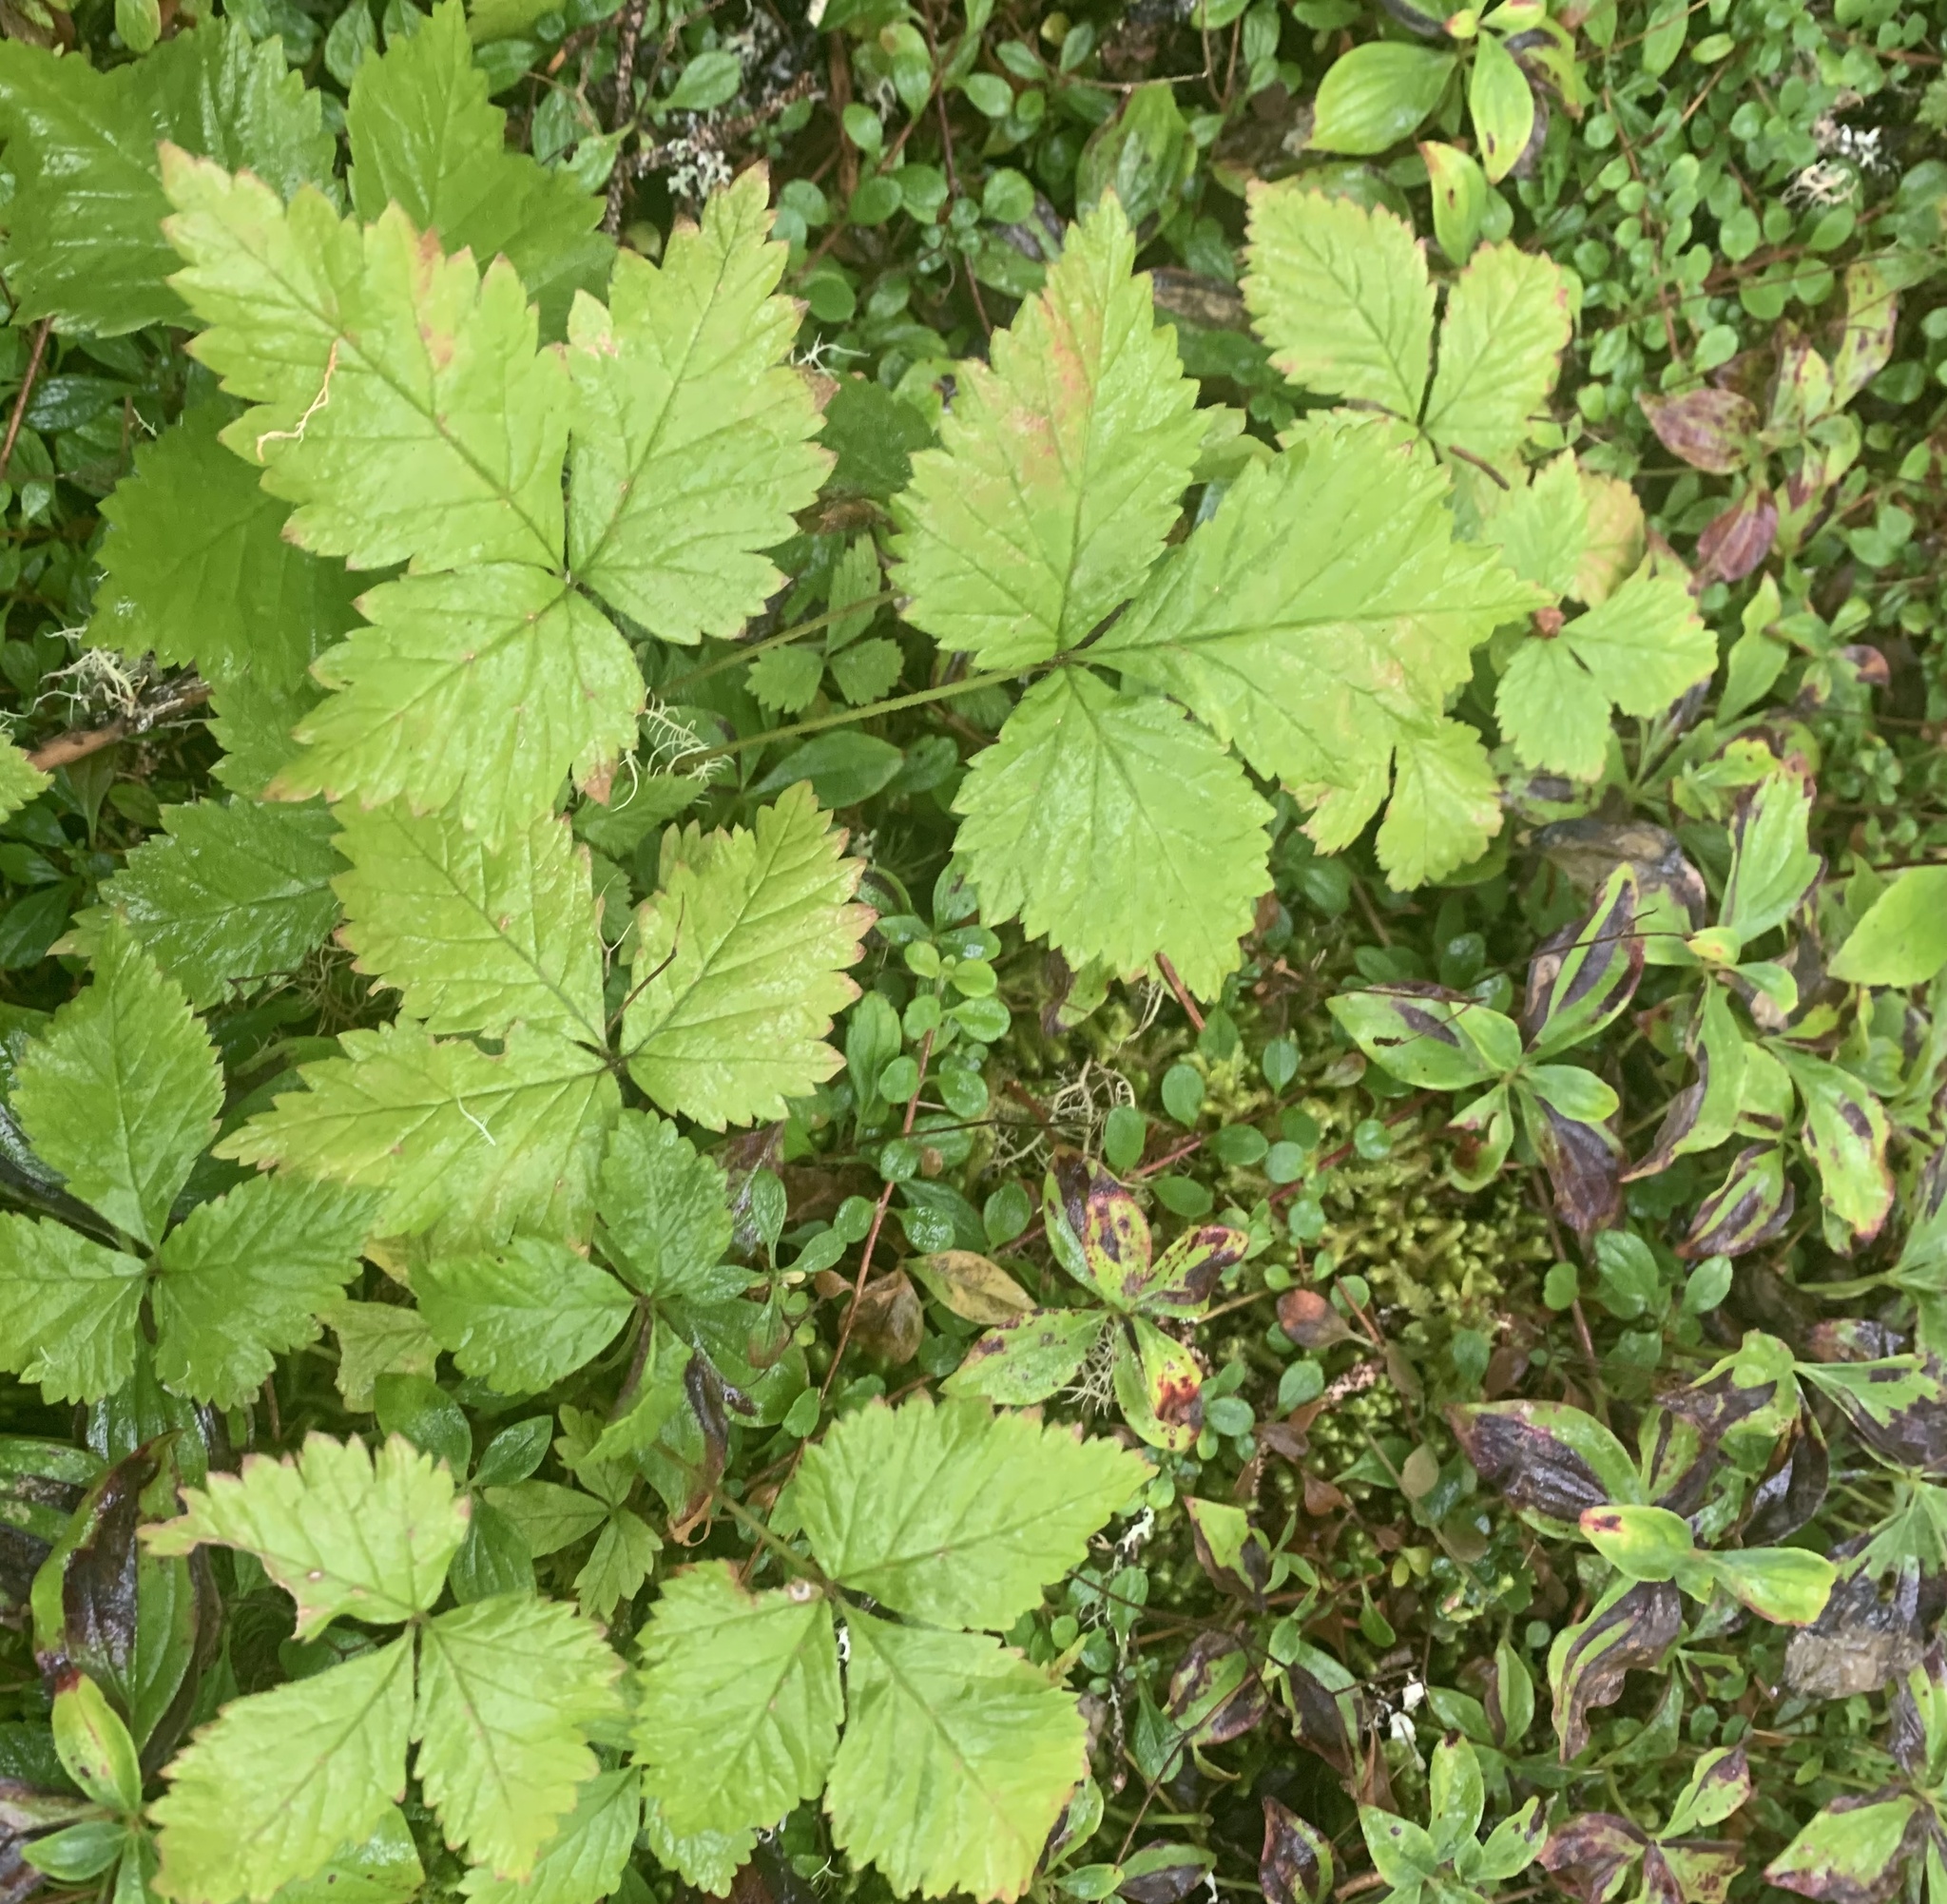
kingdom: Plantae
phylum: Tracheophyta
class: Magnoliopsida
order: Rosales
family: Rosaceae
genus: Rubus
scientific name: Rubus pubescens
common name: Dwarf raspberry
